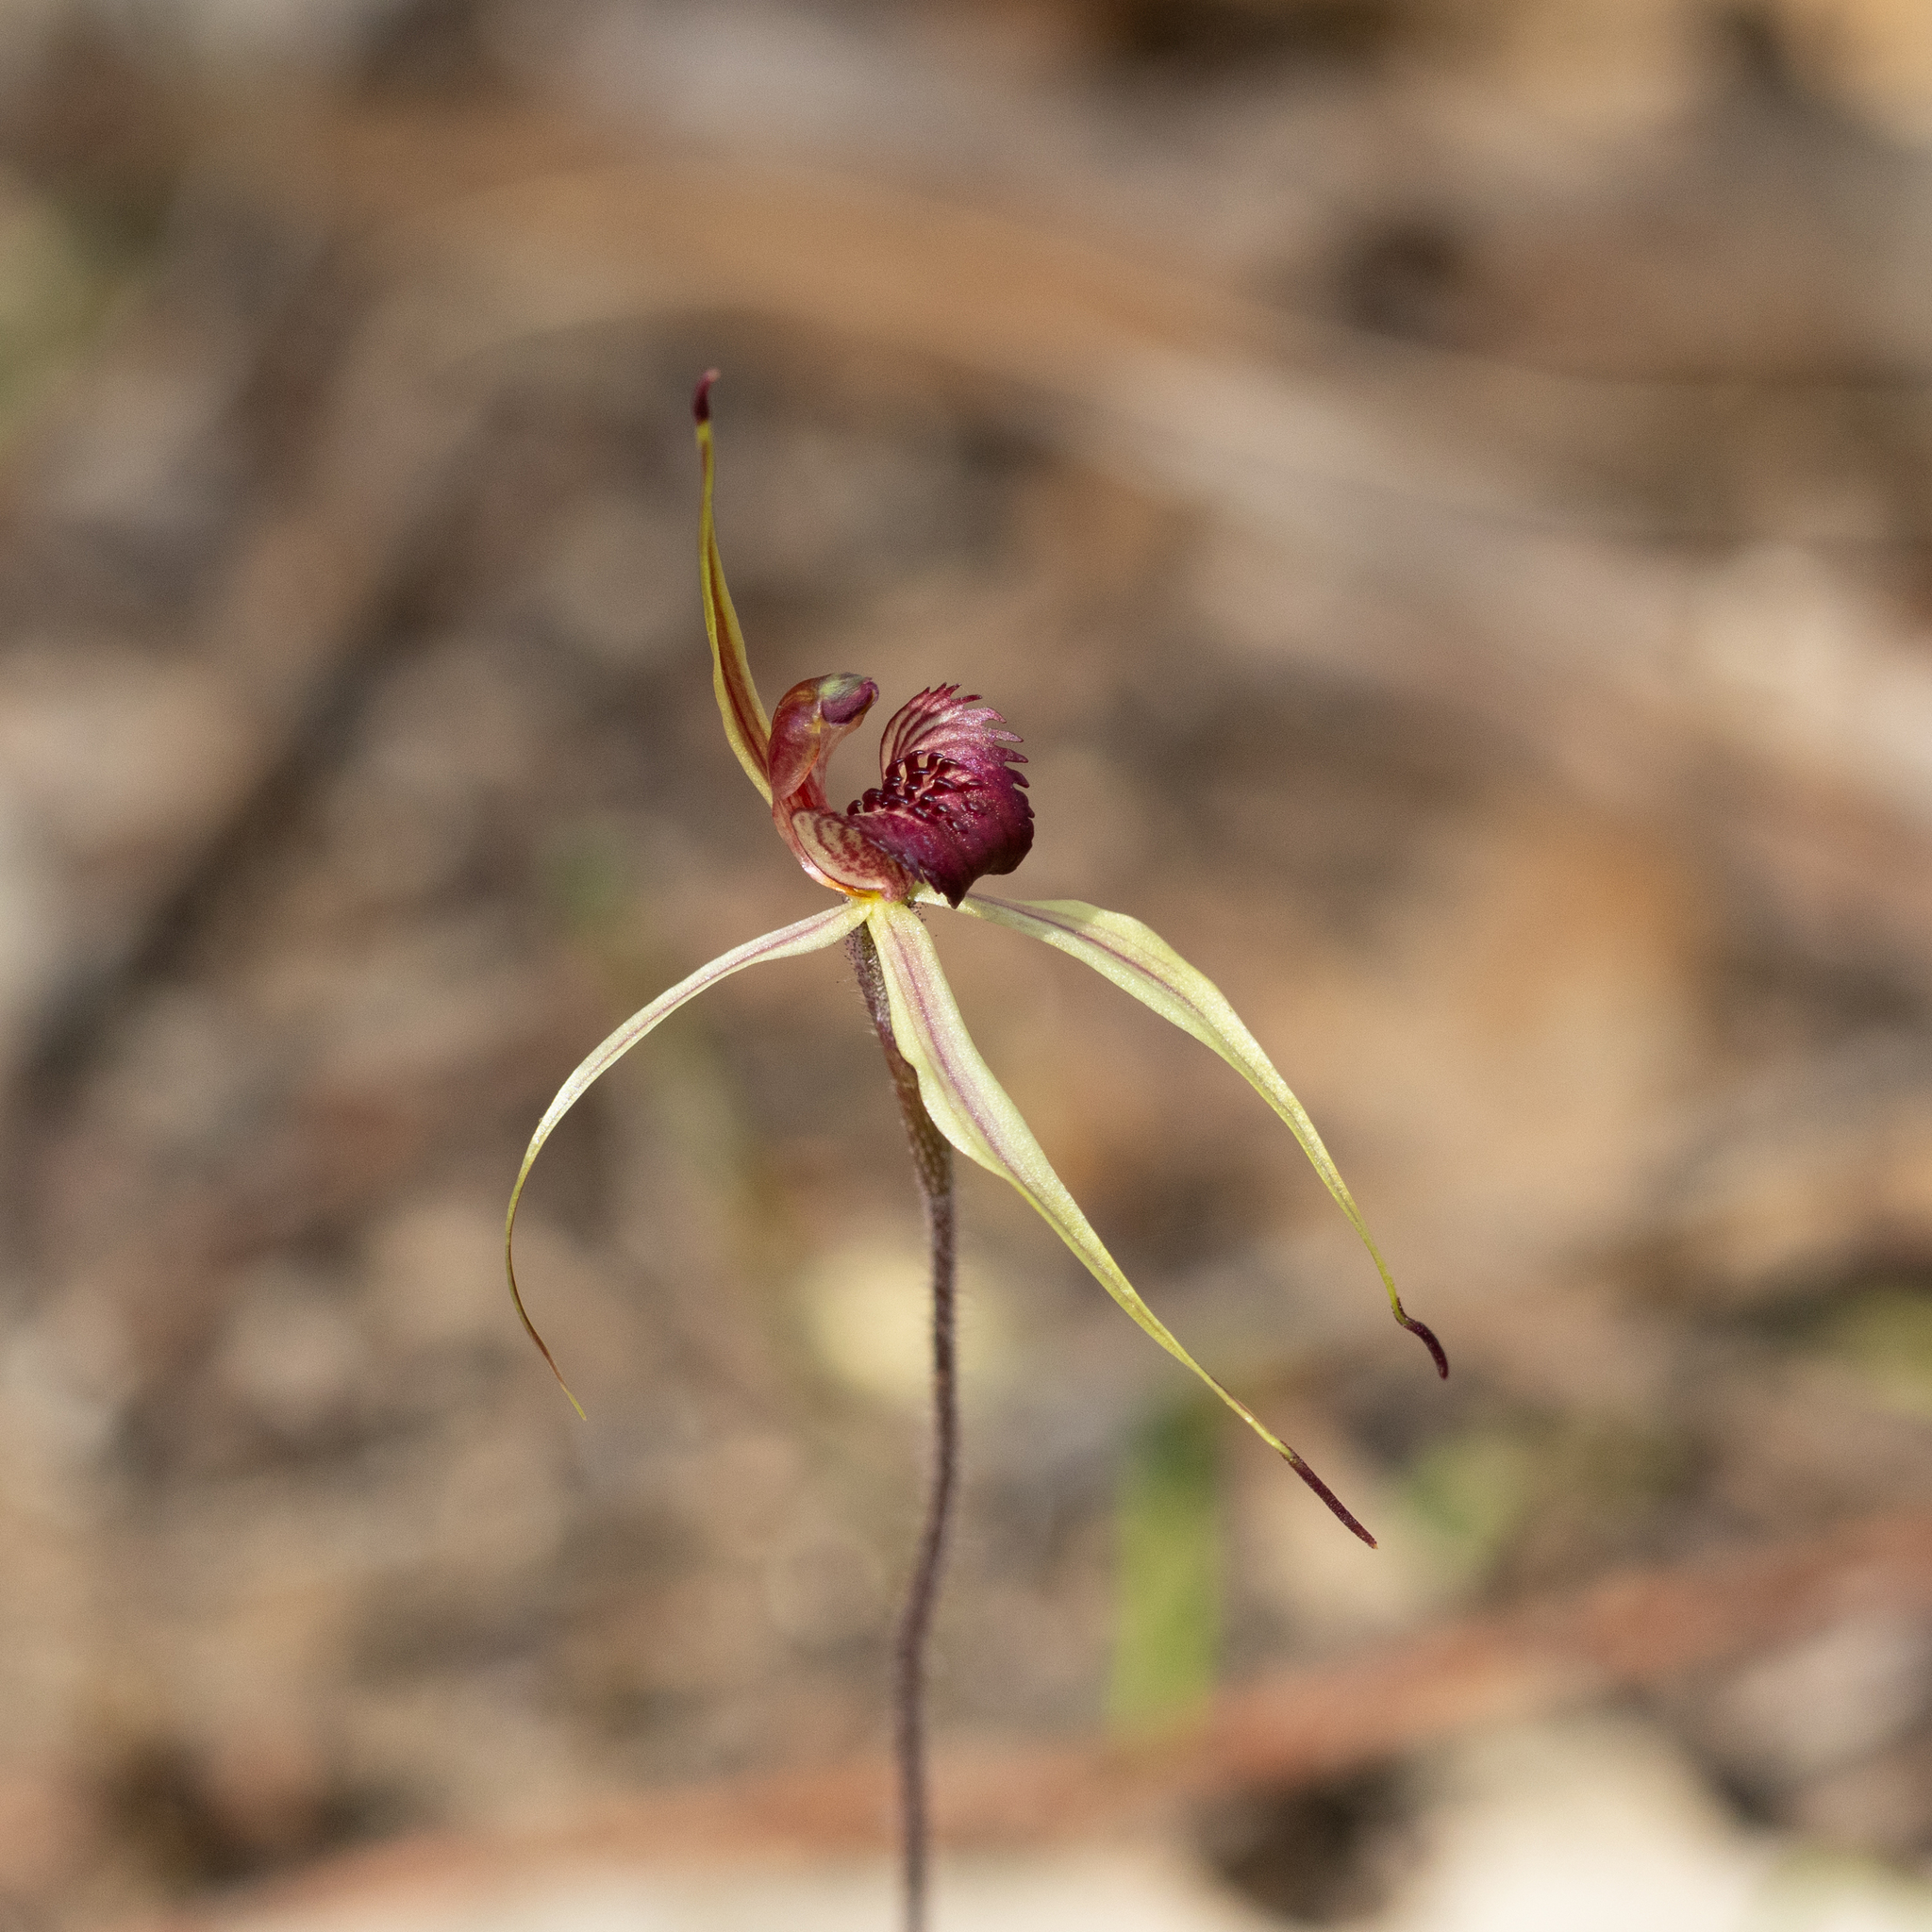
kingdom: Plantae
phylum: Tracheophyta
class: Liliopsida
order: Asparagales
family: Orchidaceae
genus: Caladenia
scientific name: Caladenia reticulata
